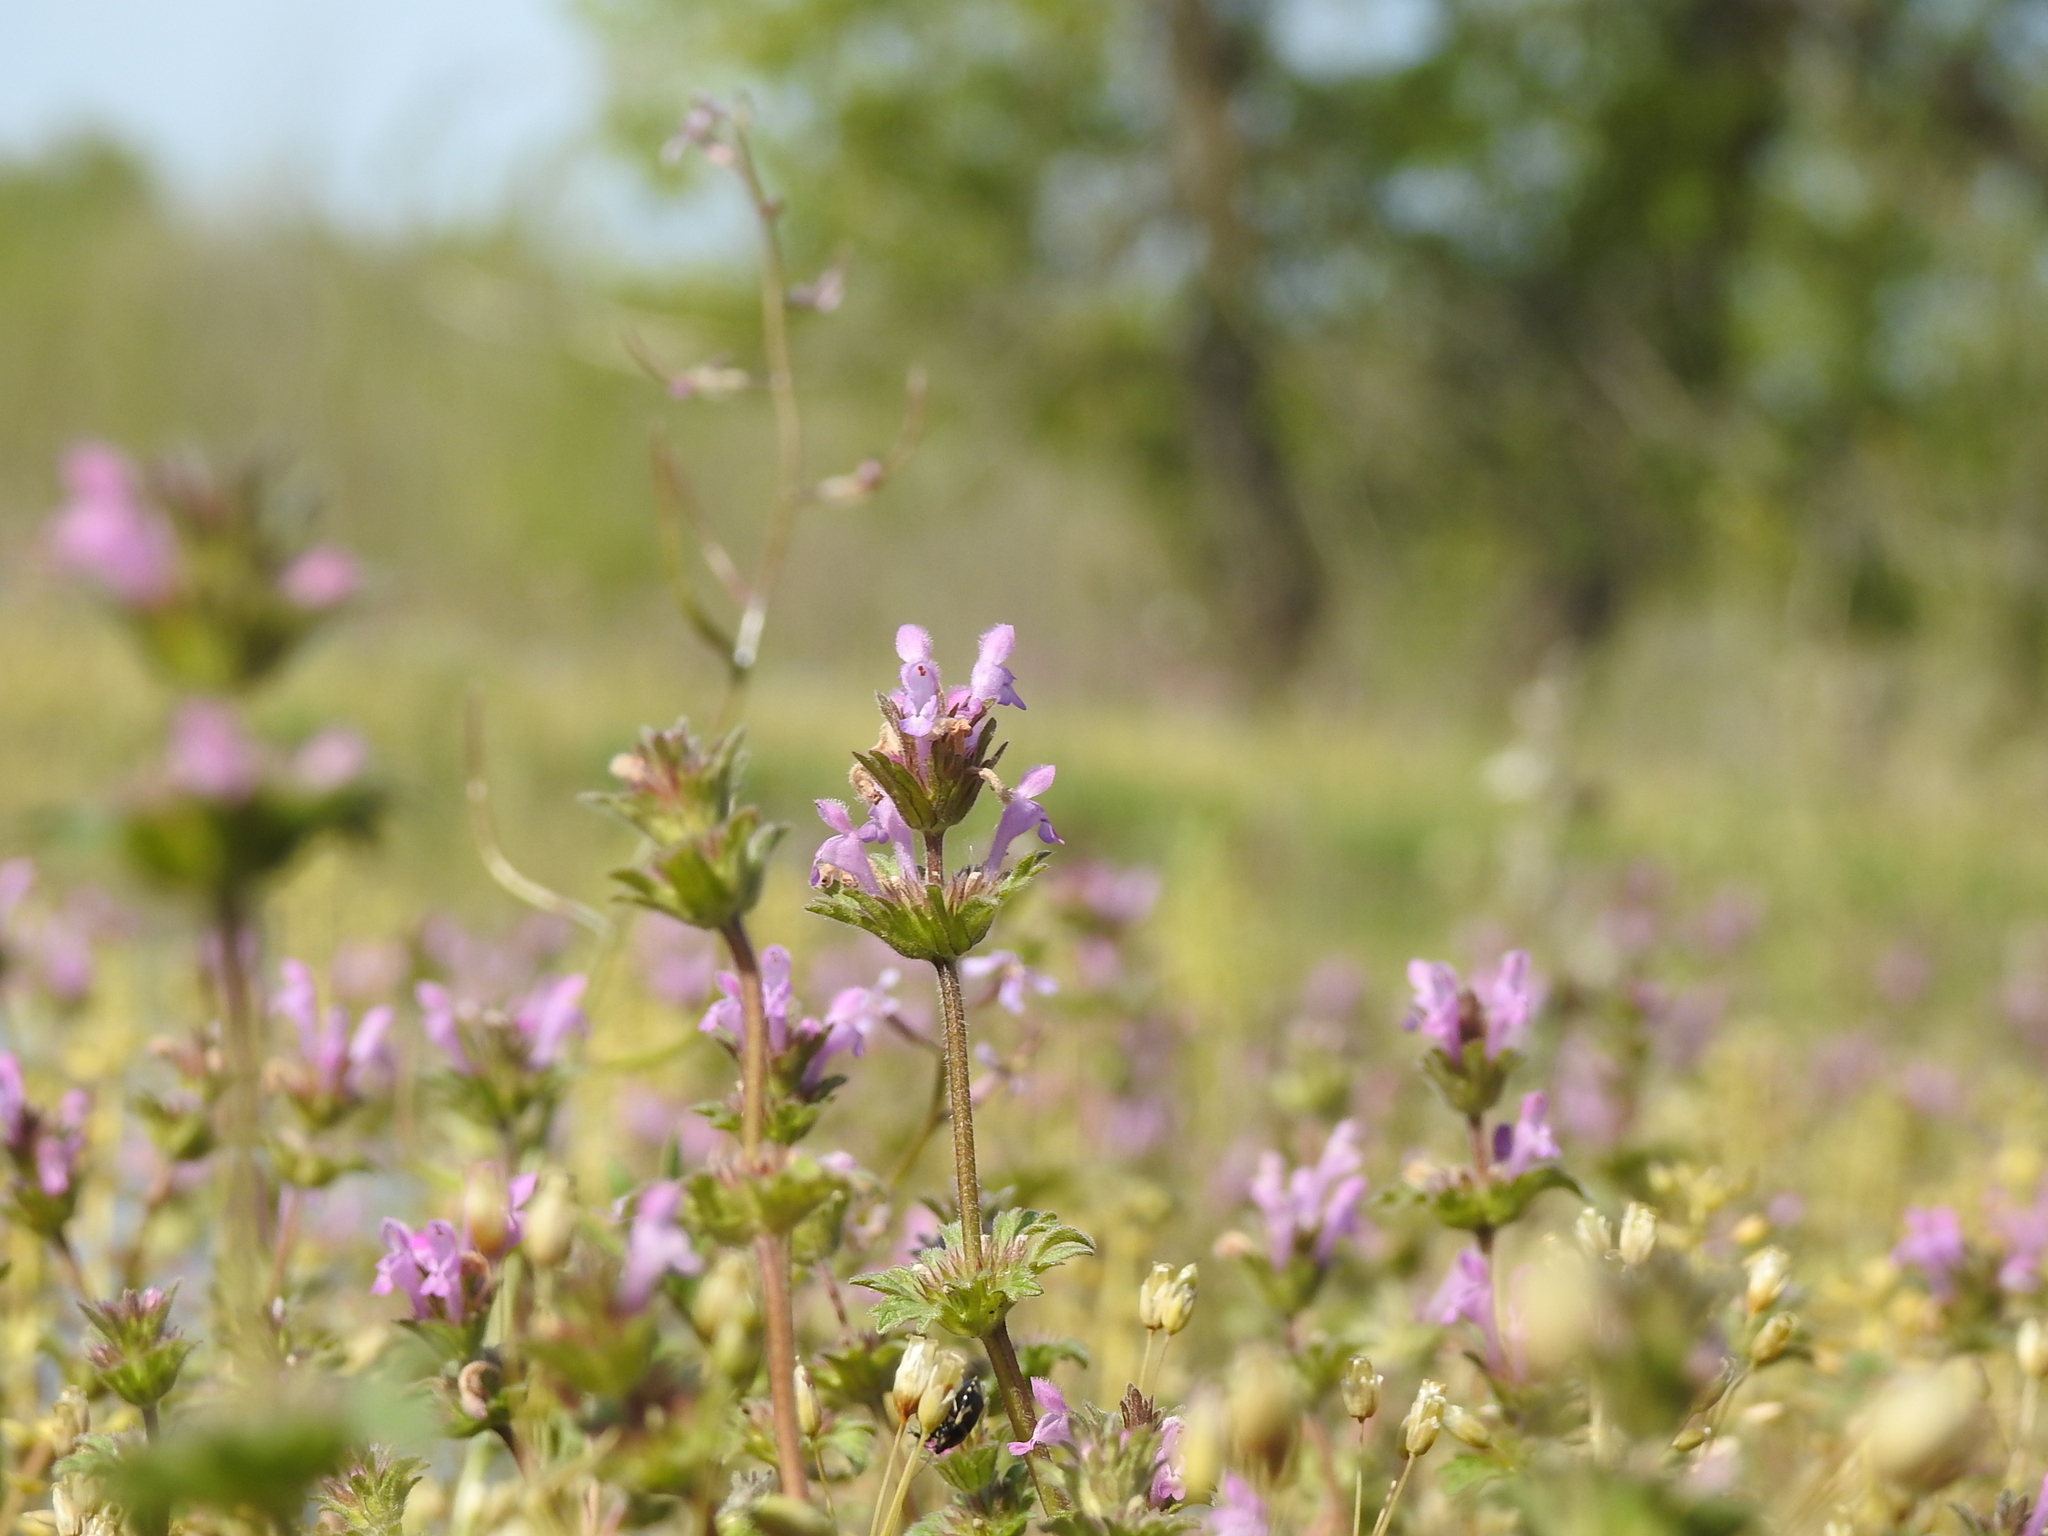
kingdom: Plantae
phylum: Tracheophyta
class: Magnoliopsida
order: Lamiales
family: Lamiaceae
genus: Lamium
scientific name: Lamium amplexicaule
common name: Henbit dead-nettle
